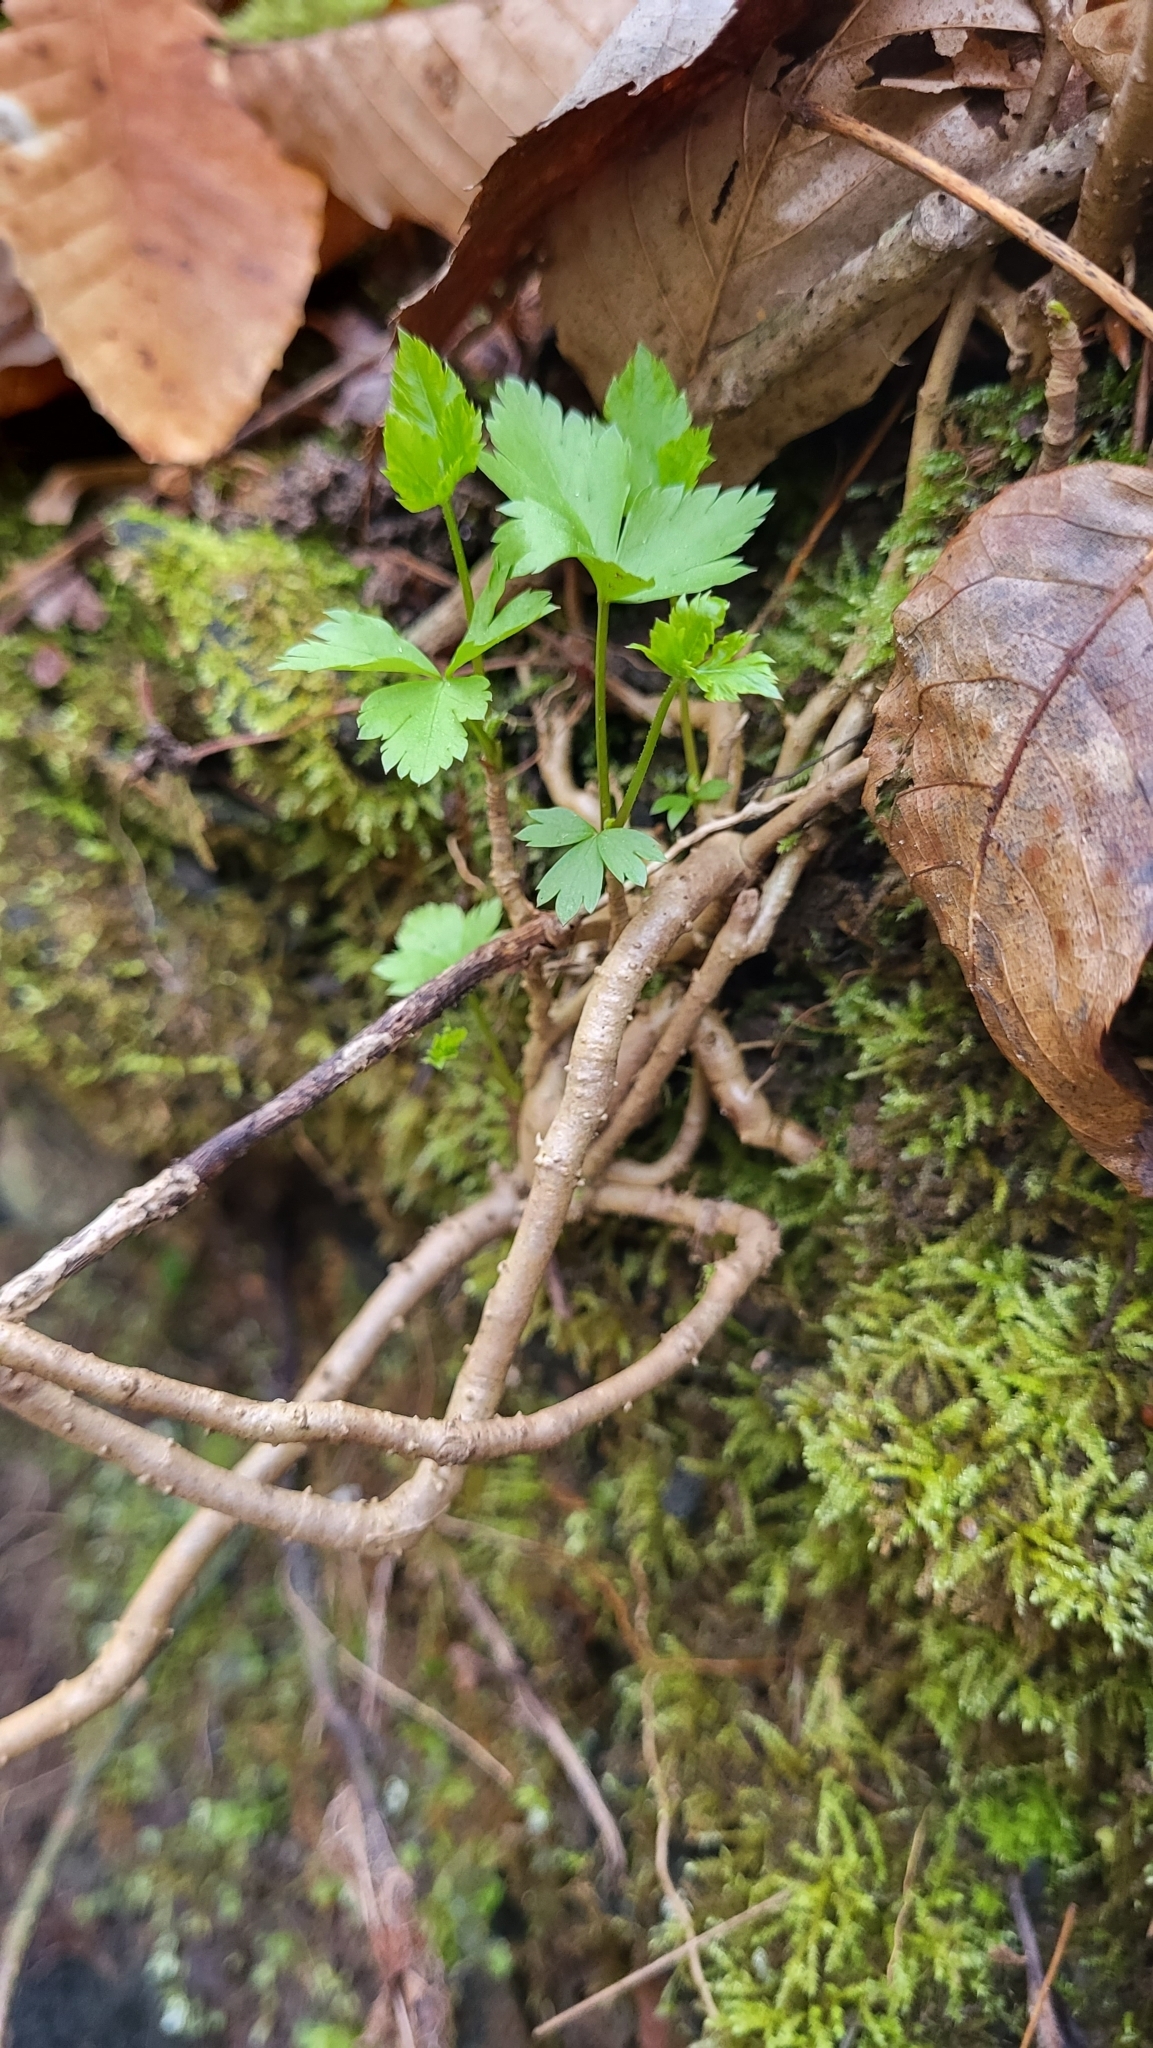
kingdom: Plantae
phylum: Tracheophyta
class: Magnoliopsida
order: Ranunculales
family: Ranunculaceae
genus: Xanthorhiza
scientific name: Xanthorhiza simplicissima
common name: Yellowroot
